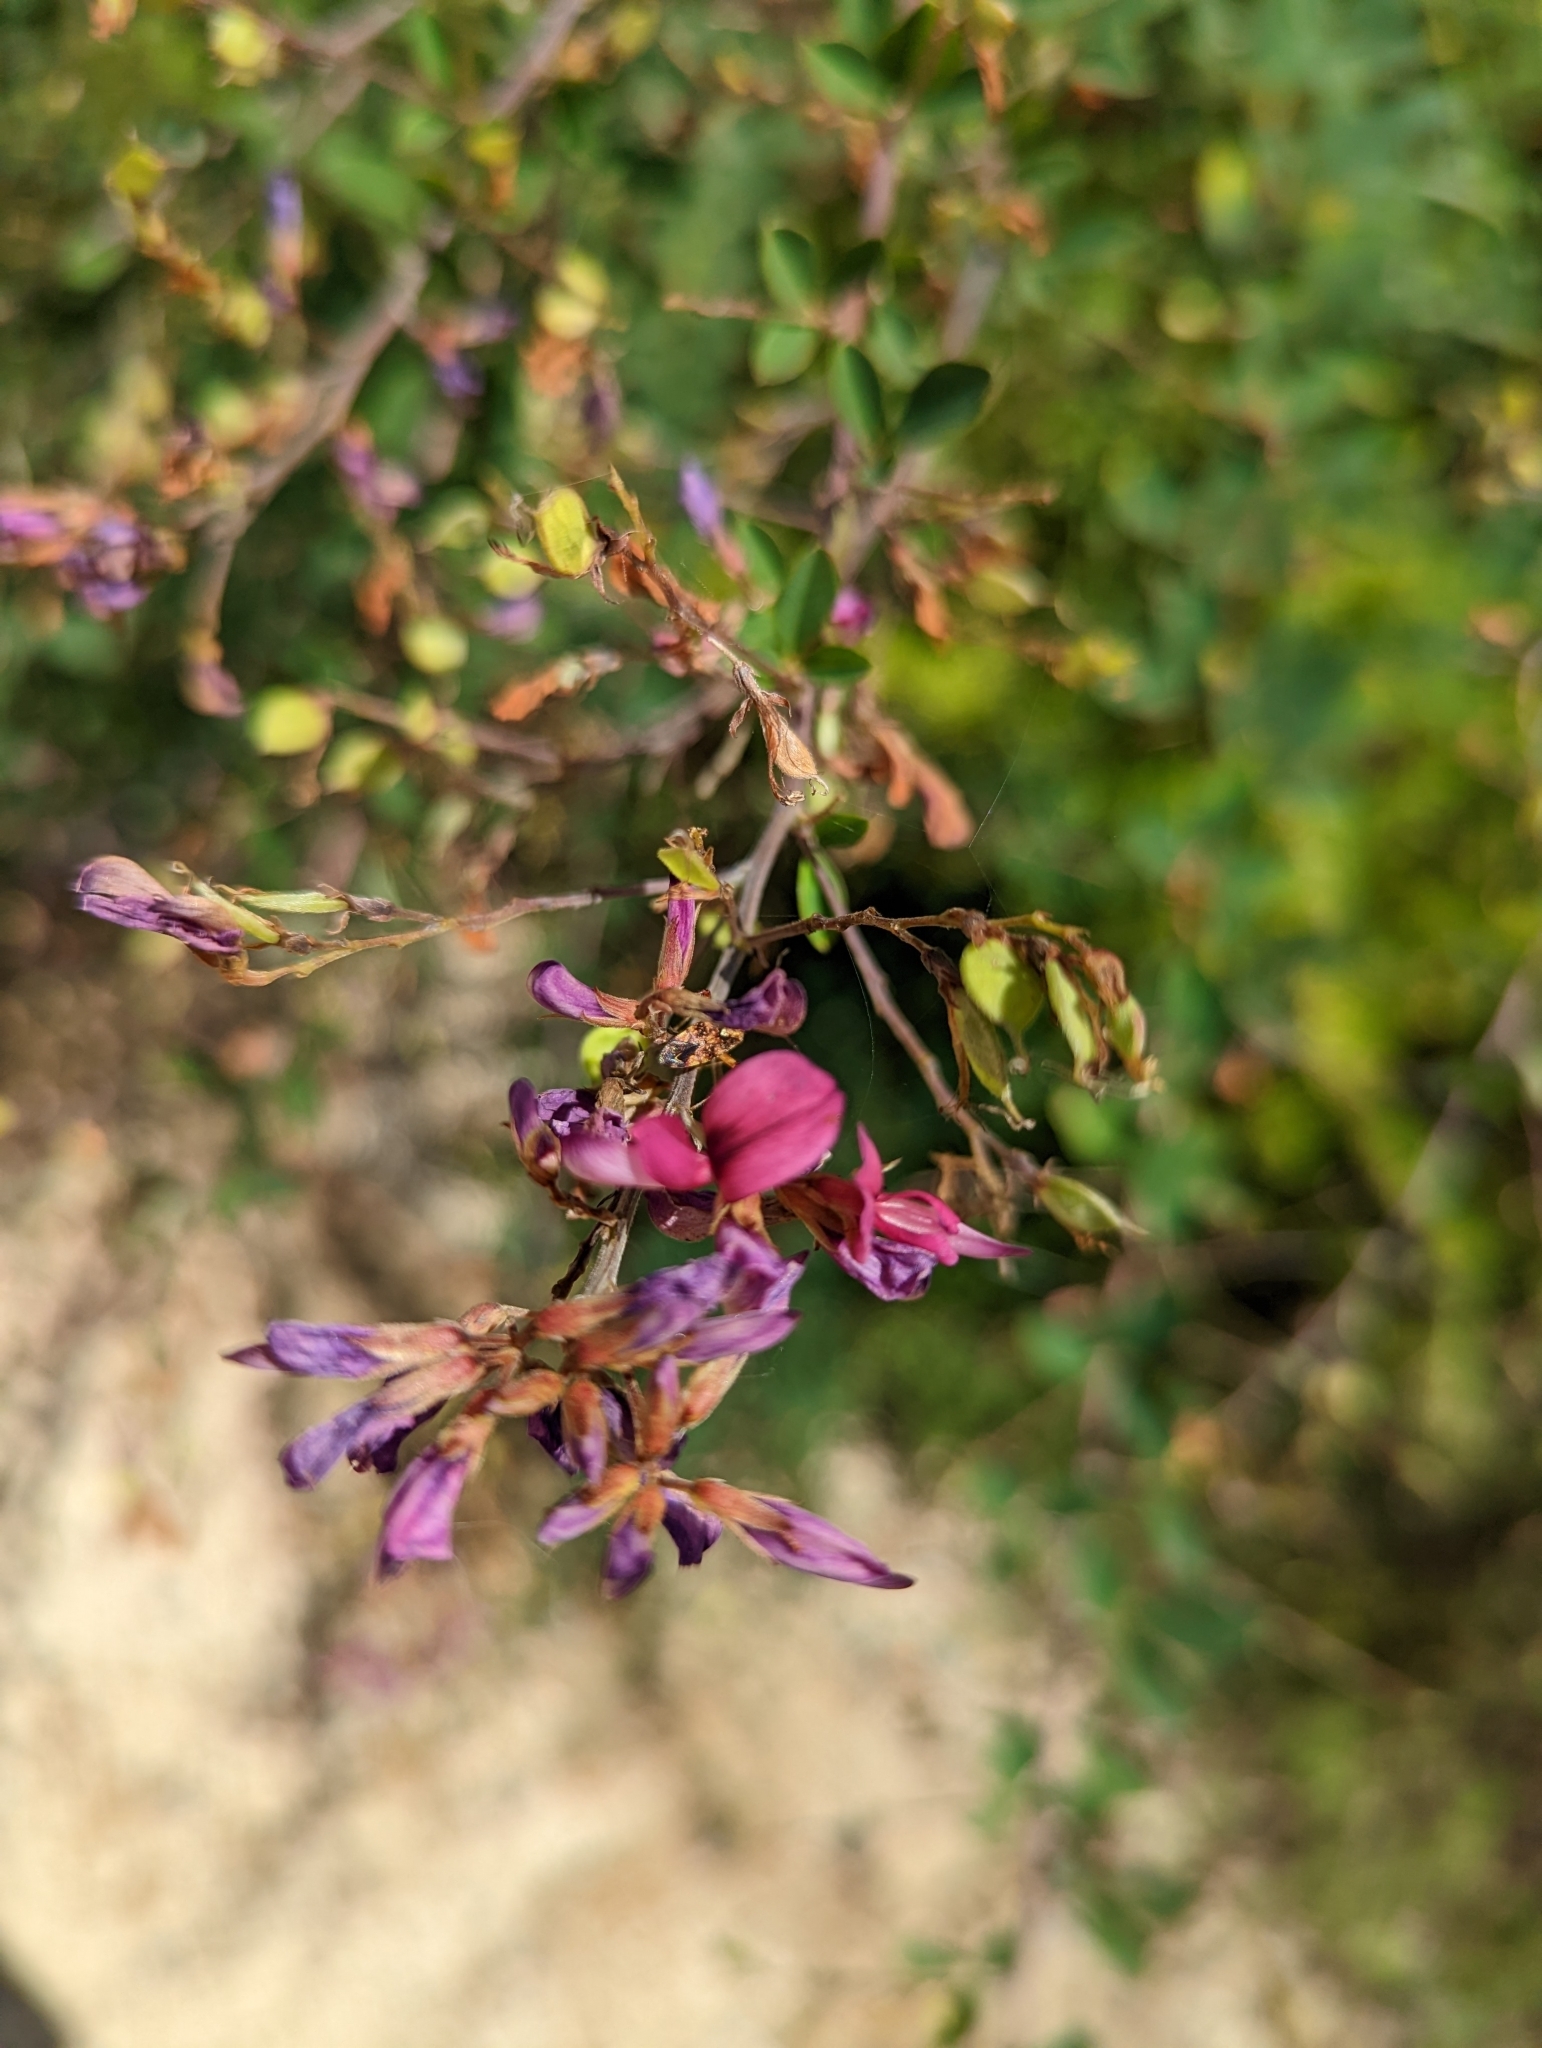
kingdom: Plantae
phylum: Tracheophyta
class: Magnoliopsida
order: Fabales
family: Fabaceae
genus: Lespedeza
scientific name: Lespedeza bicolor
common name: Shrub lespedeza
